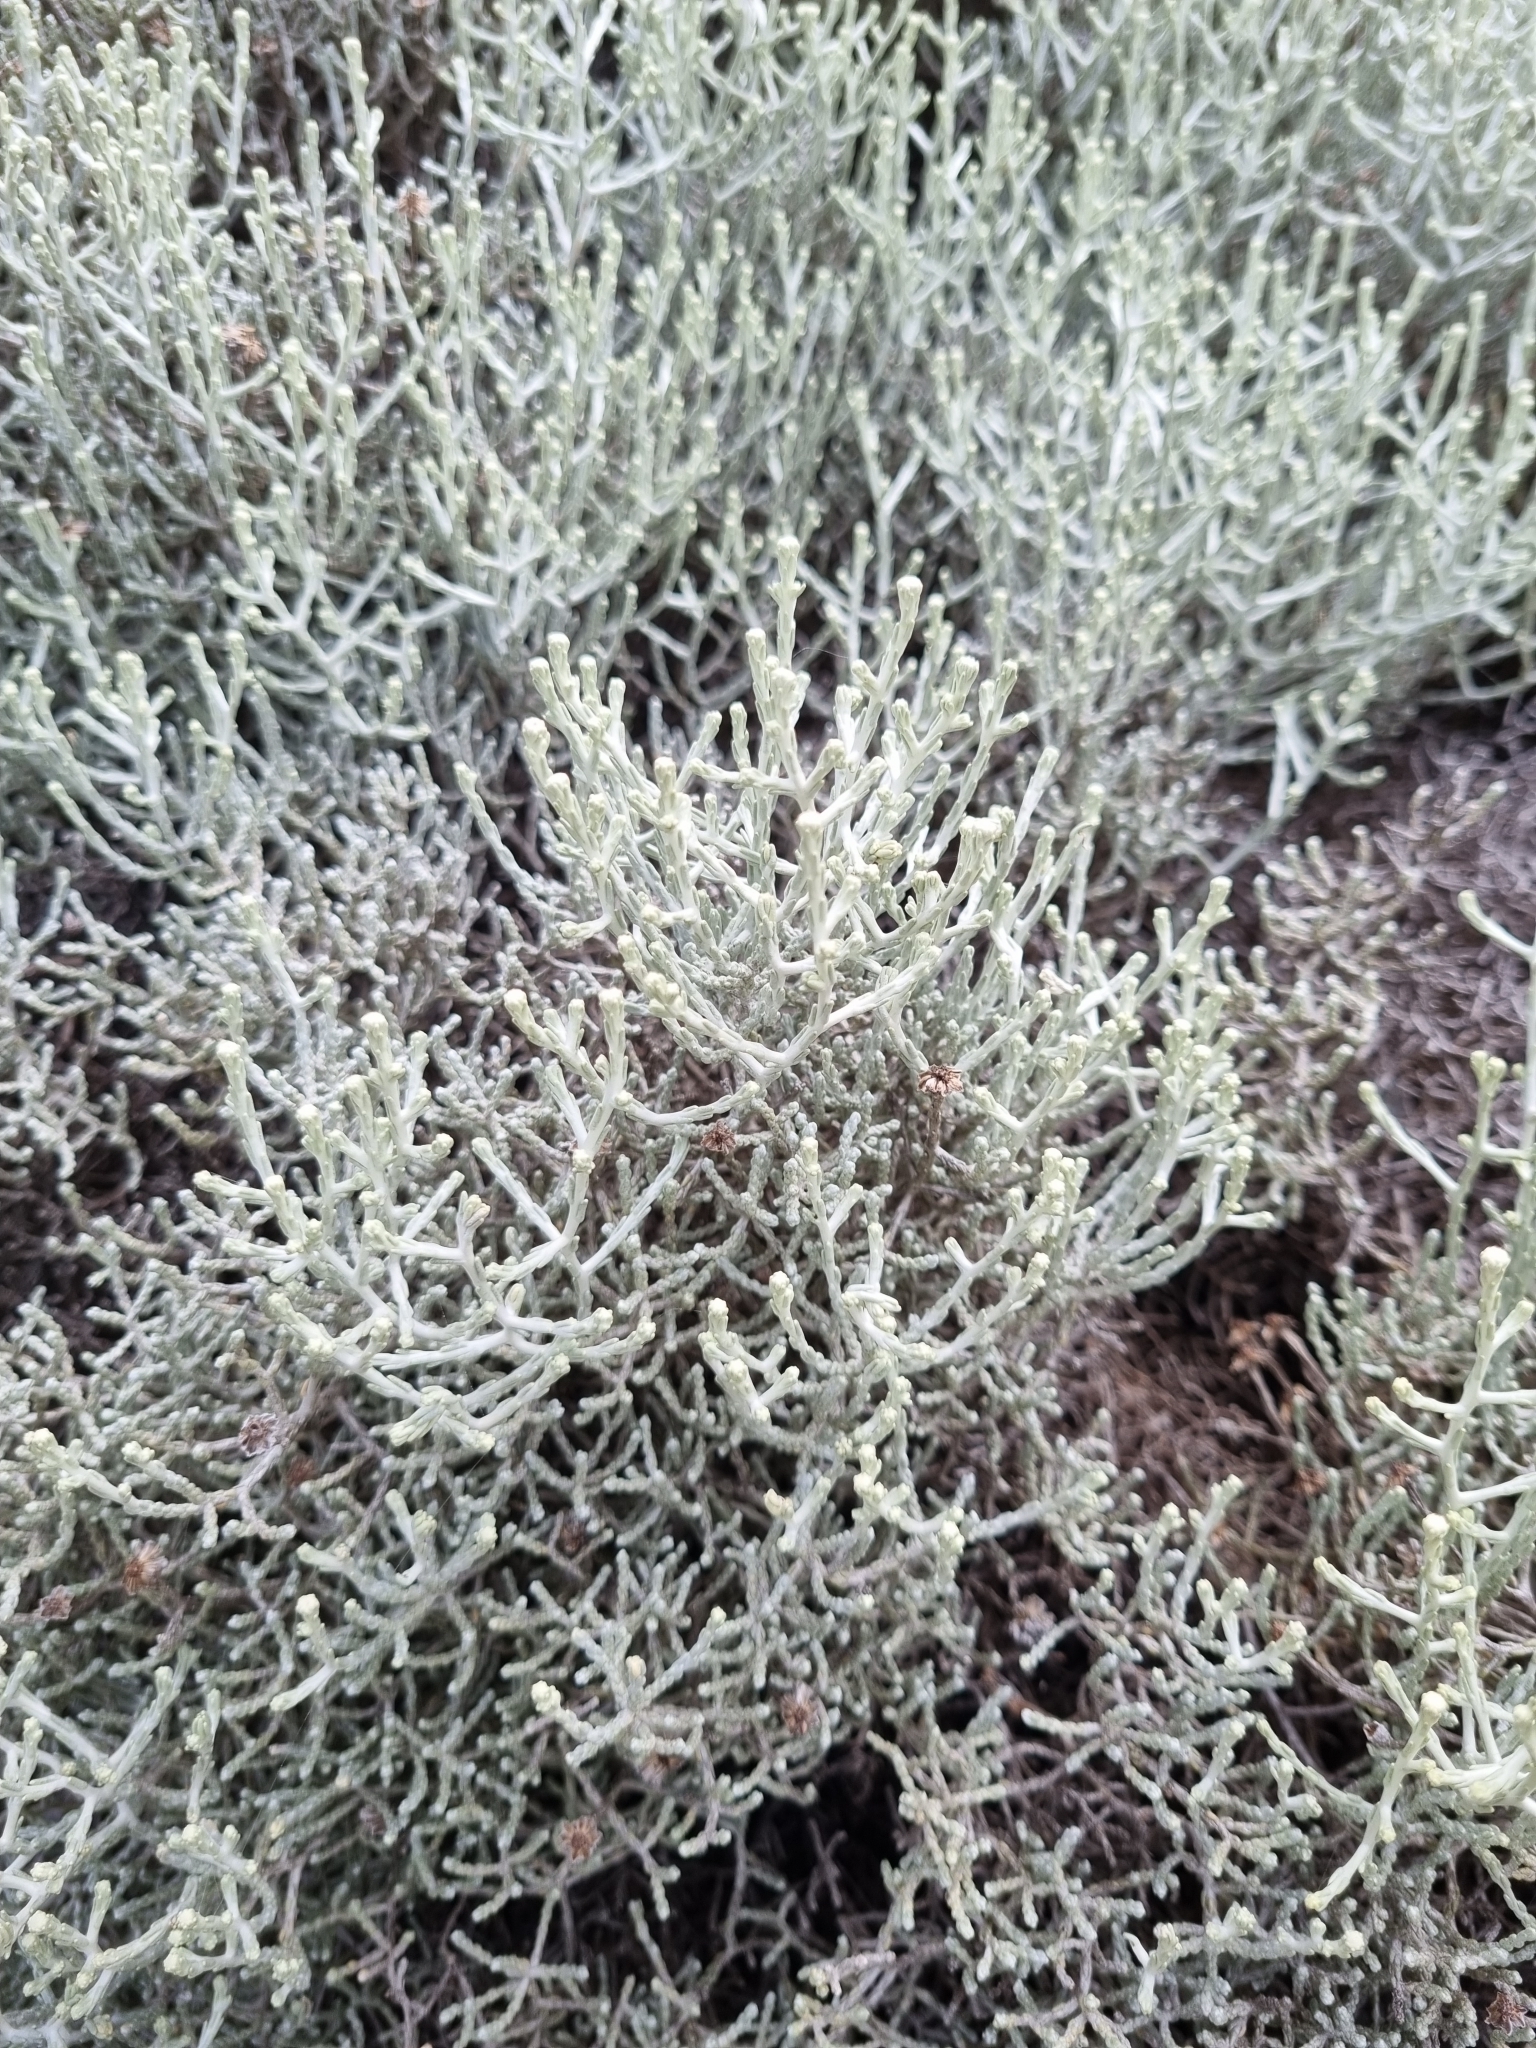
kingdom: Plantae
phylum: Tracheophyta
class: Magnoliopsida
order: Asterales
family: Asteraceae
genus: Calocephalus
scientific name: Calocephalus brownii
